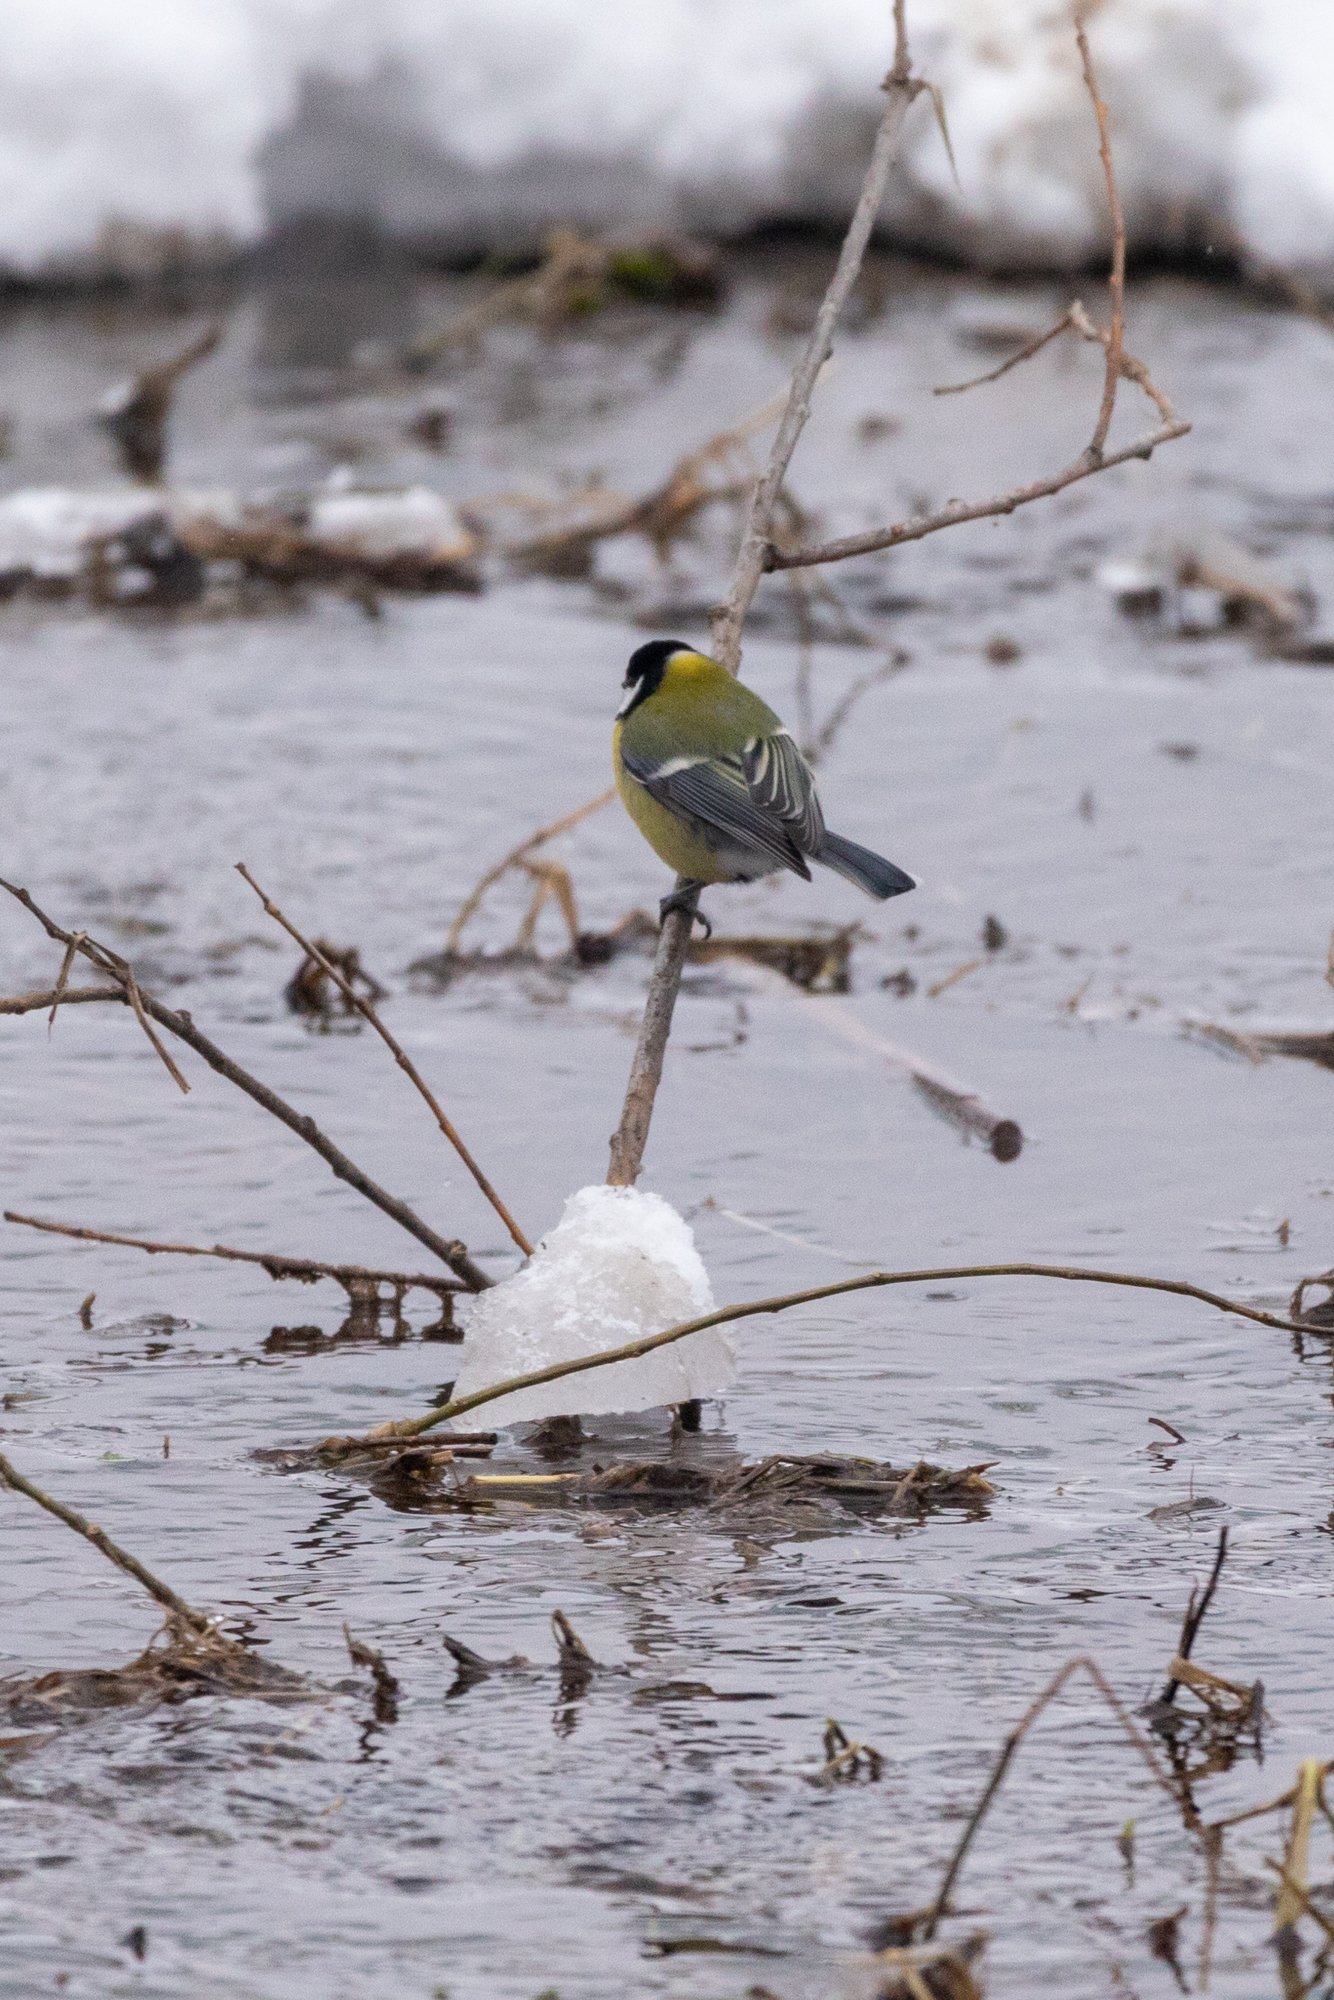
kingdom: Animalia
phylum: Chordata
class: Aves
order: Passeriformes
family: Paridae
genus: Parus
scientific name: Parus major
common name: Great tit
